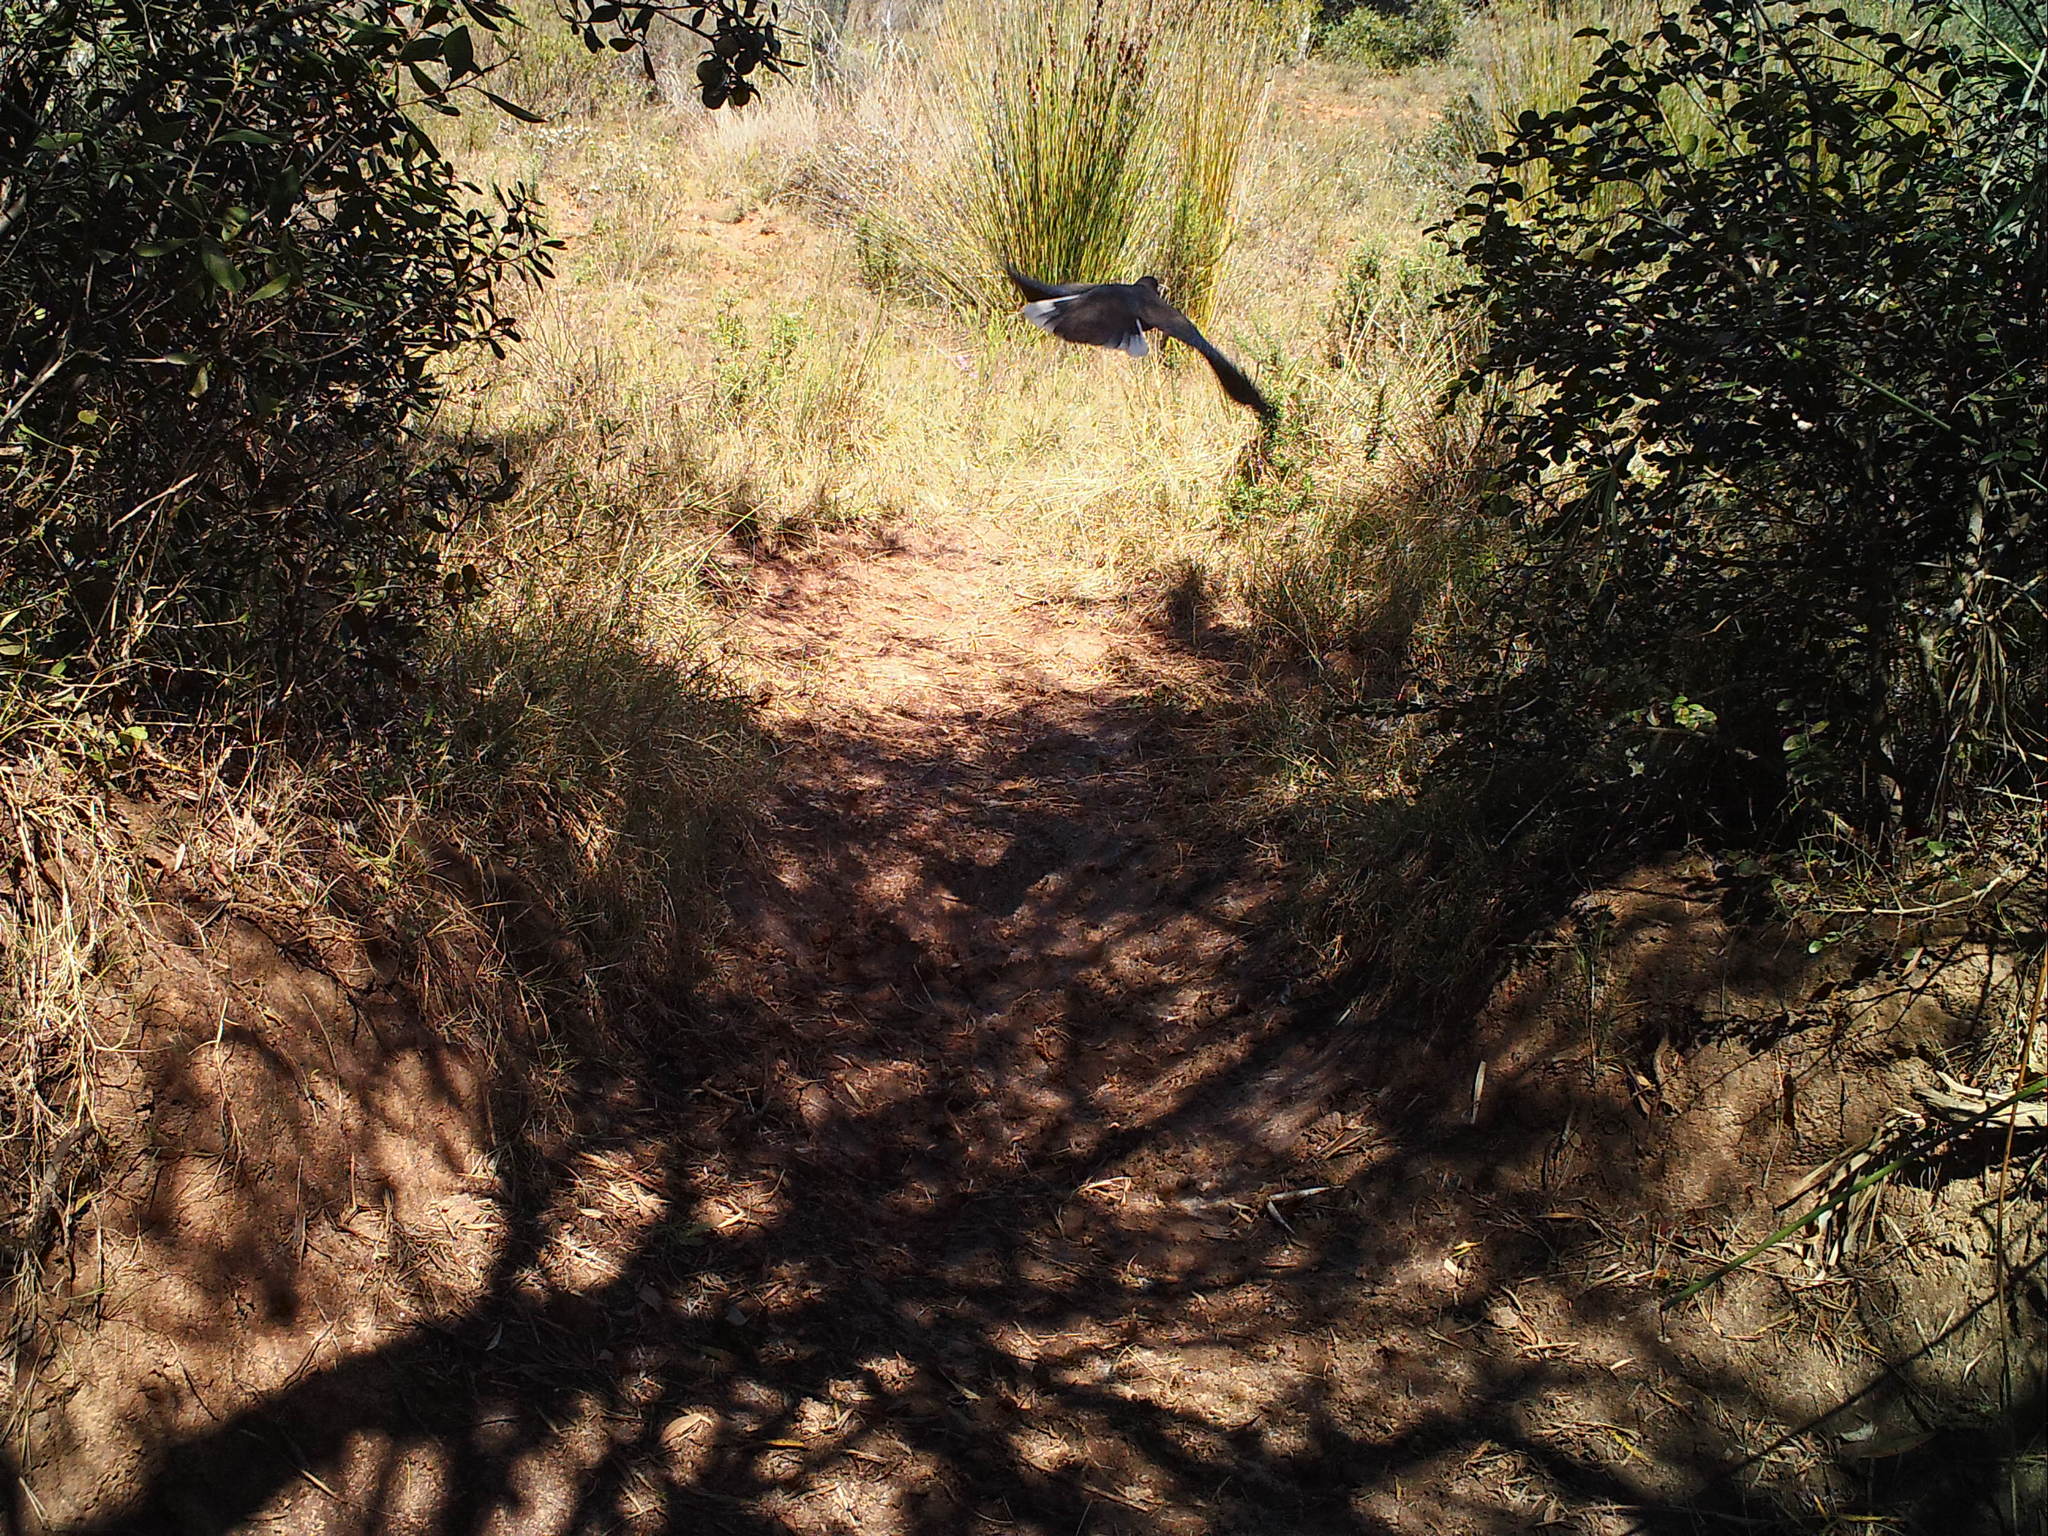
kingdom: Animalia
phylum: Chordata
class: Aves
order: Columbiformes
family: Columbidae
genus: Streptopelia
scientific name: Streptopelia capicola
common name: Ring-necked dove
